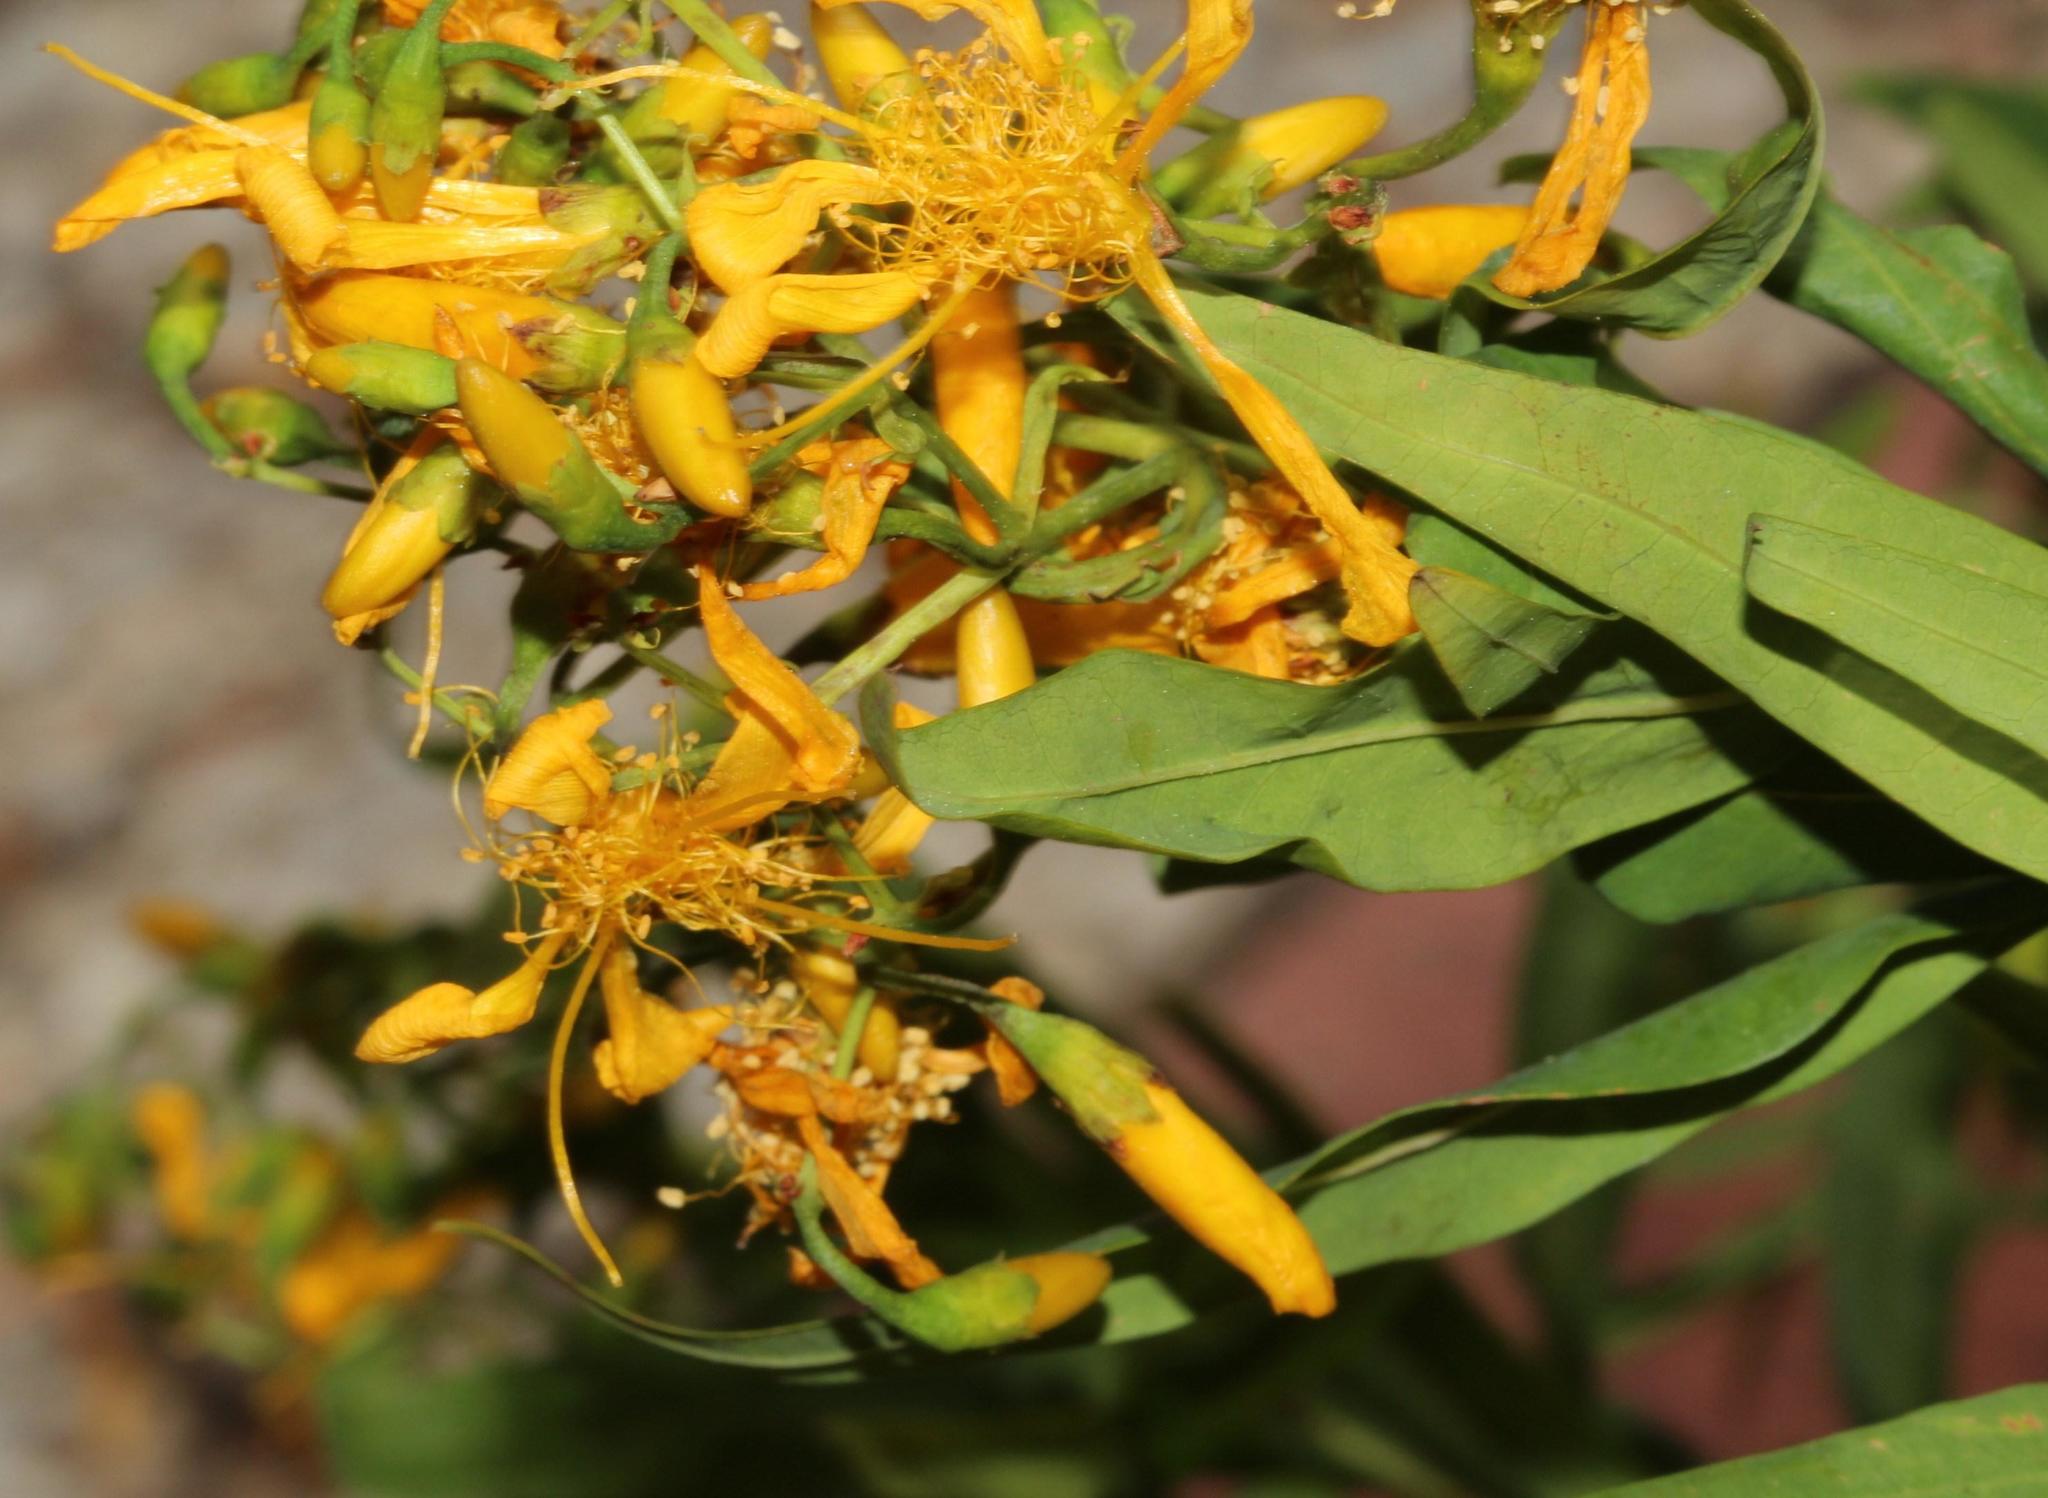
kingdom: Plantae
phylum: Tracheophyta
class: Magnoliopsida
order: Malpighiales
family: Hypericaceae
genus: Hypericum
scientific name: Hypericum canariense
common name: Canary island st. johnswort
